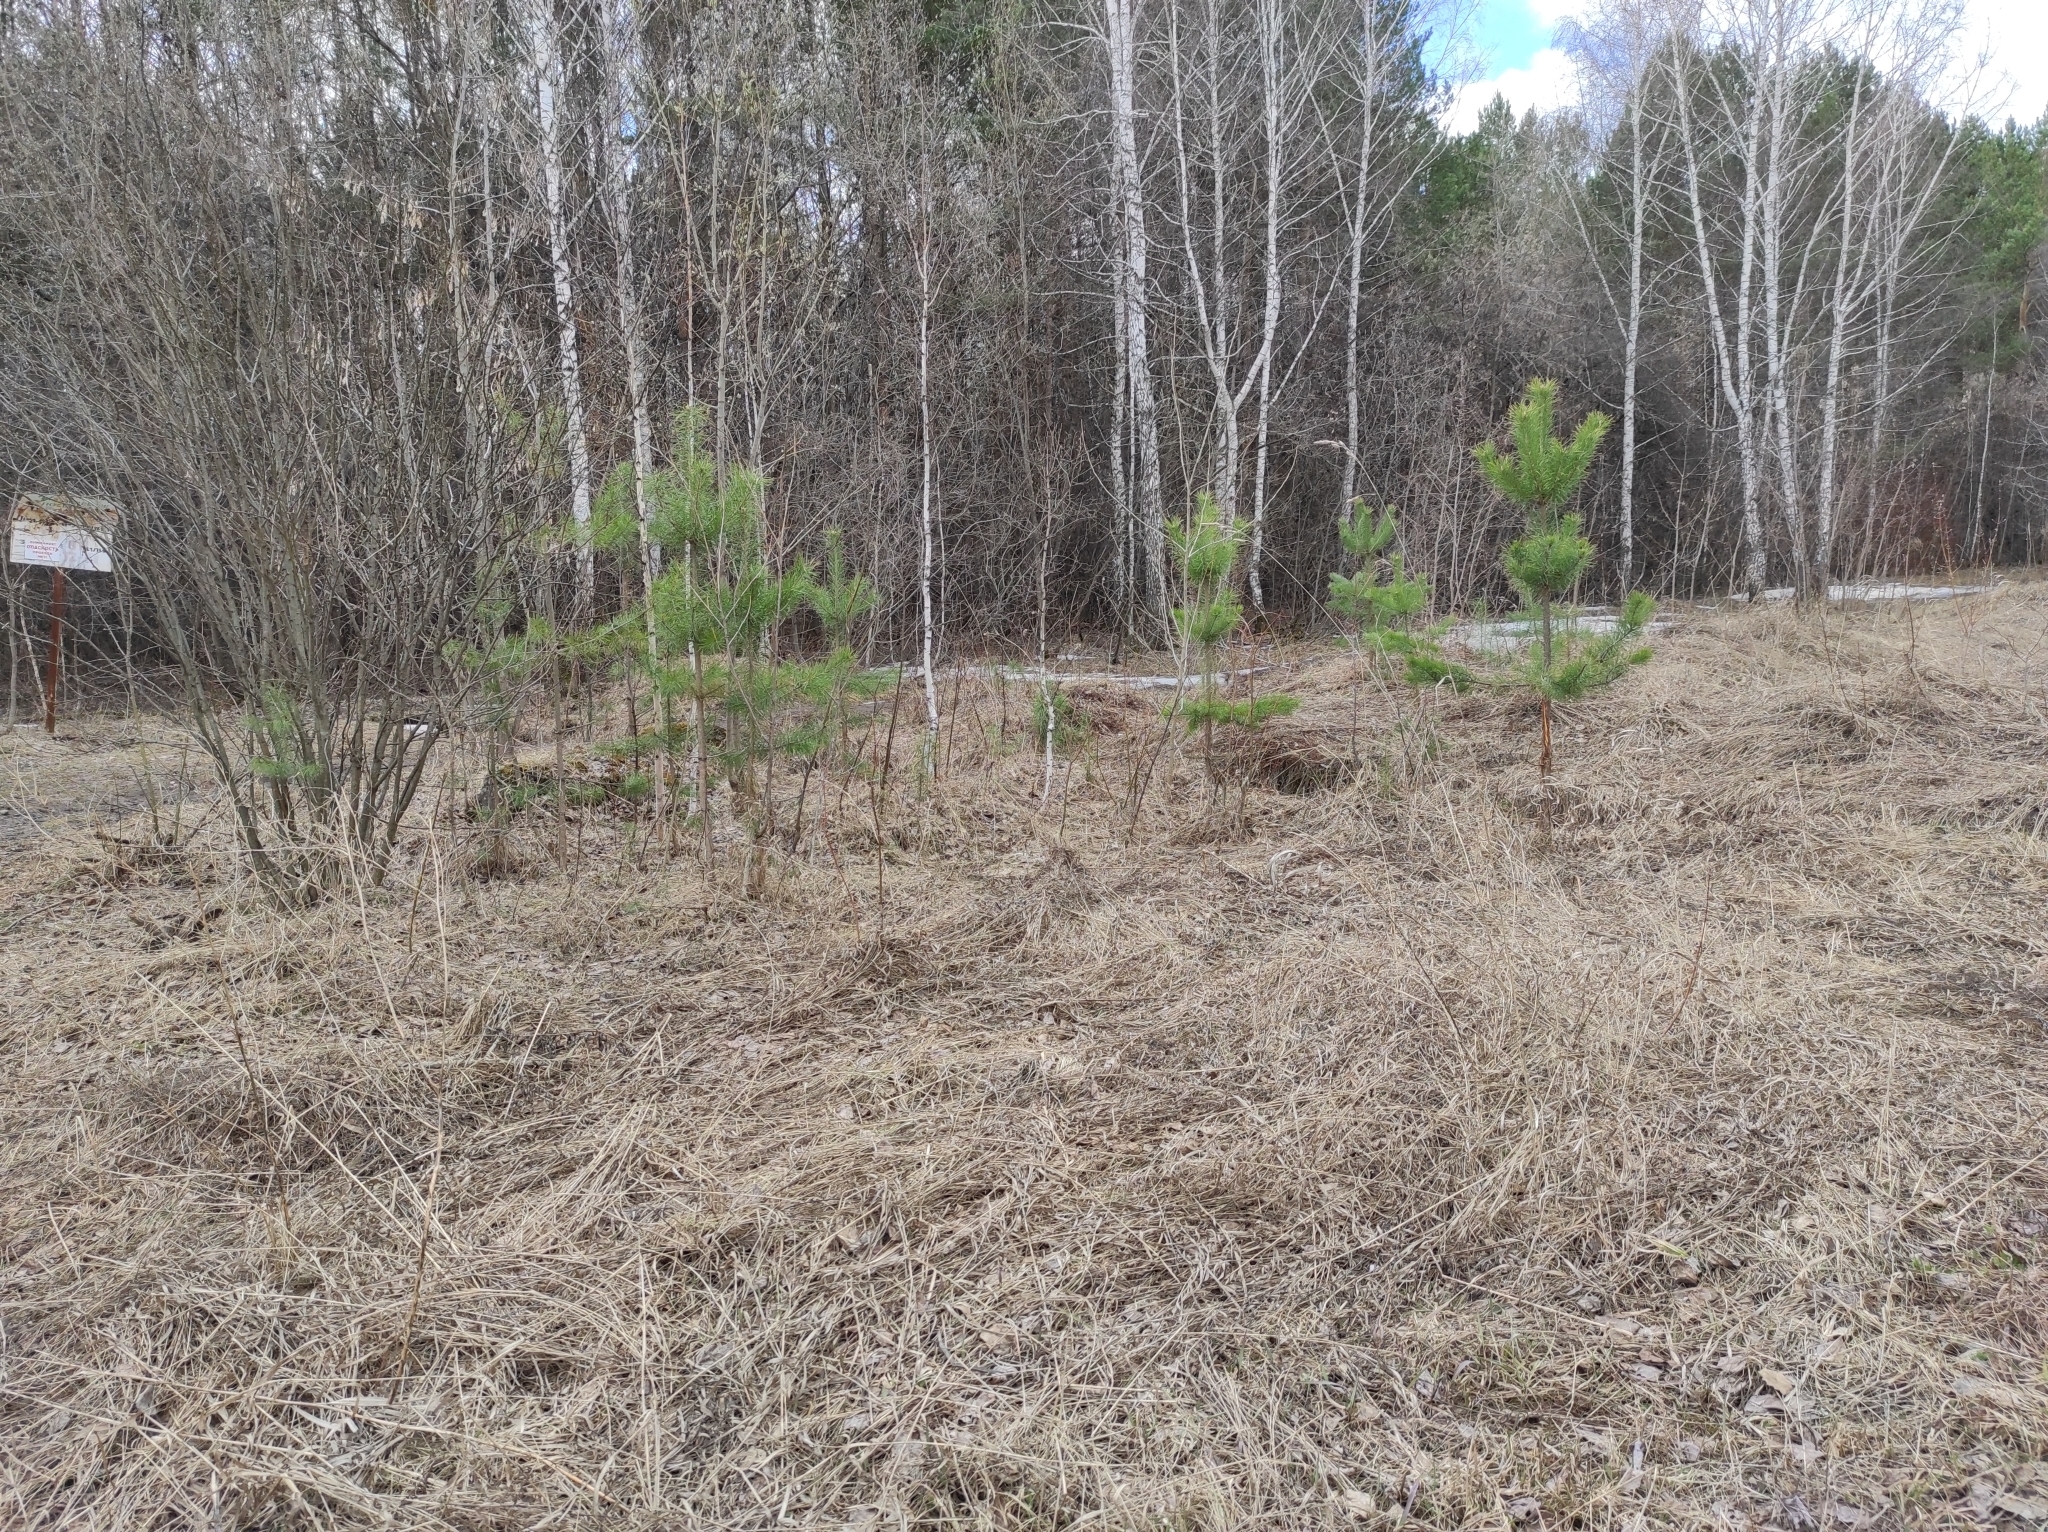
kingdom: Plantae
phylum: Tracheophyta
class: Pinopsida
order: Pinales
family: Pinaceae
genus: Pinus
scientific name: Pinus sylvestris
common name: Scots pine
